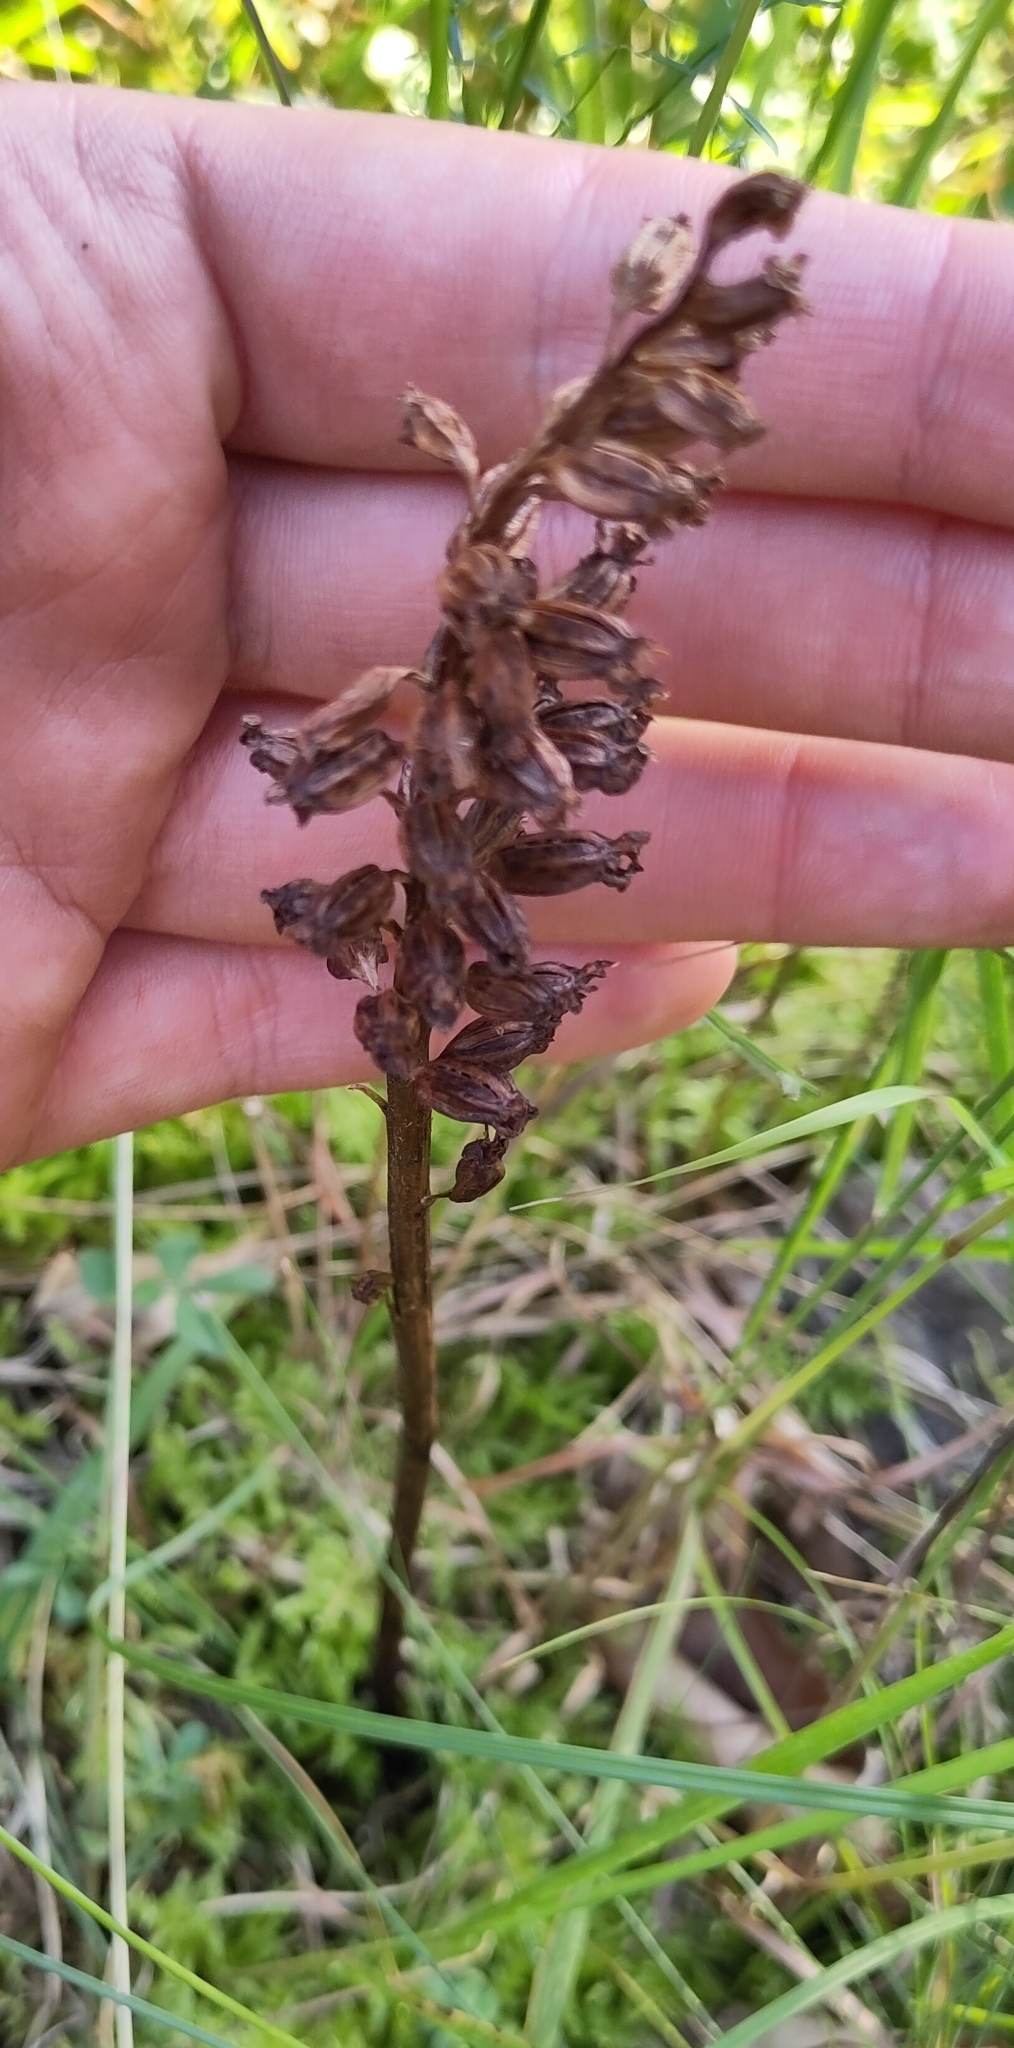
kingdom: Plantae
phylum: Tracheophyta
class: Liliopsida
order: Asparagales
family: Orchidaceae
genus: Neottia
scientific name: Neottia nidus-avis
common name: Bird's-nest orchid
